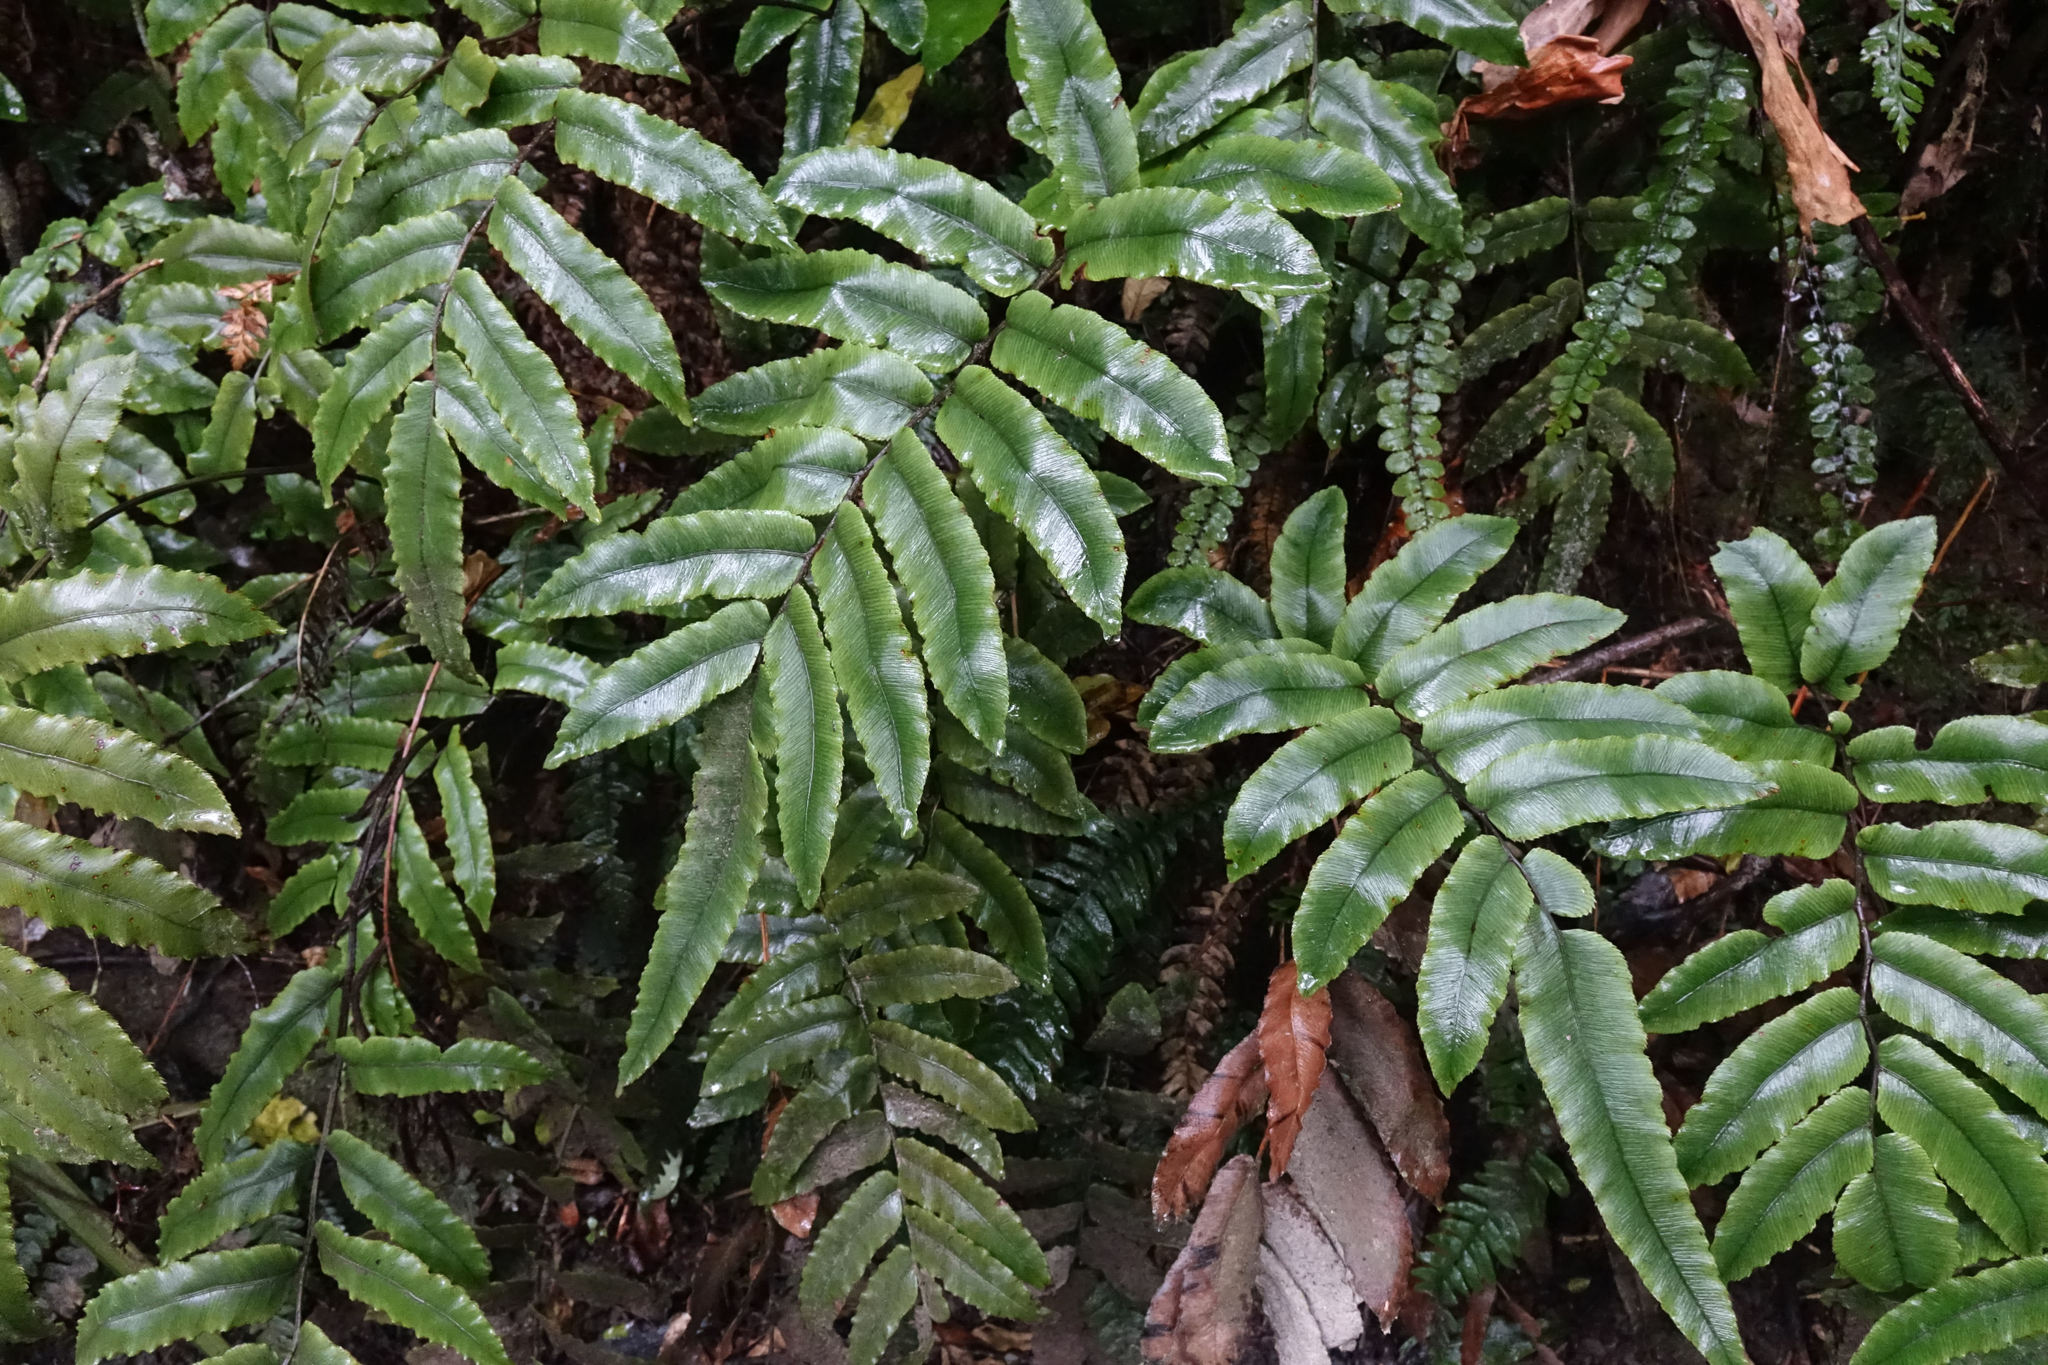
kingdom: Plantae
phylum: Tracheophyta
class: Polypodiopsida
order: Polypodiales
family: Blechnaceae
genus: Parablechnum
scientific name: Parablechnum procerum
